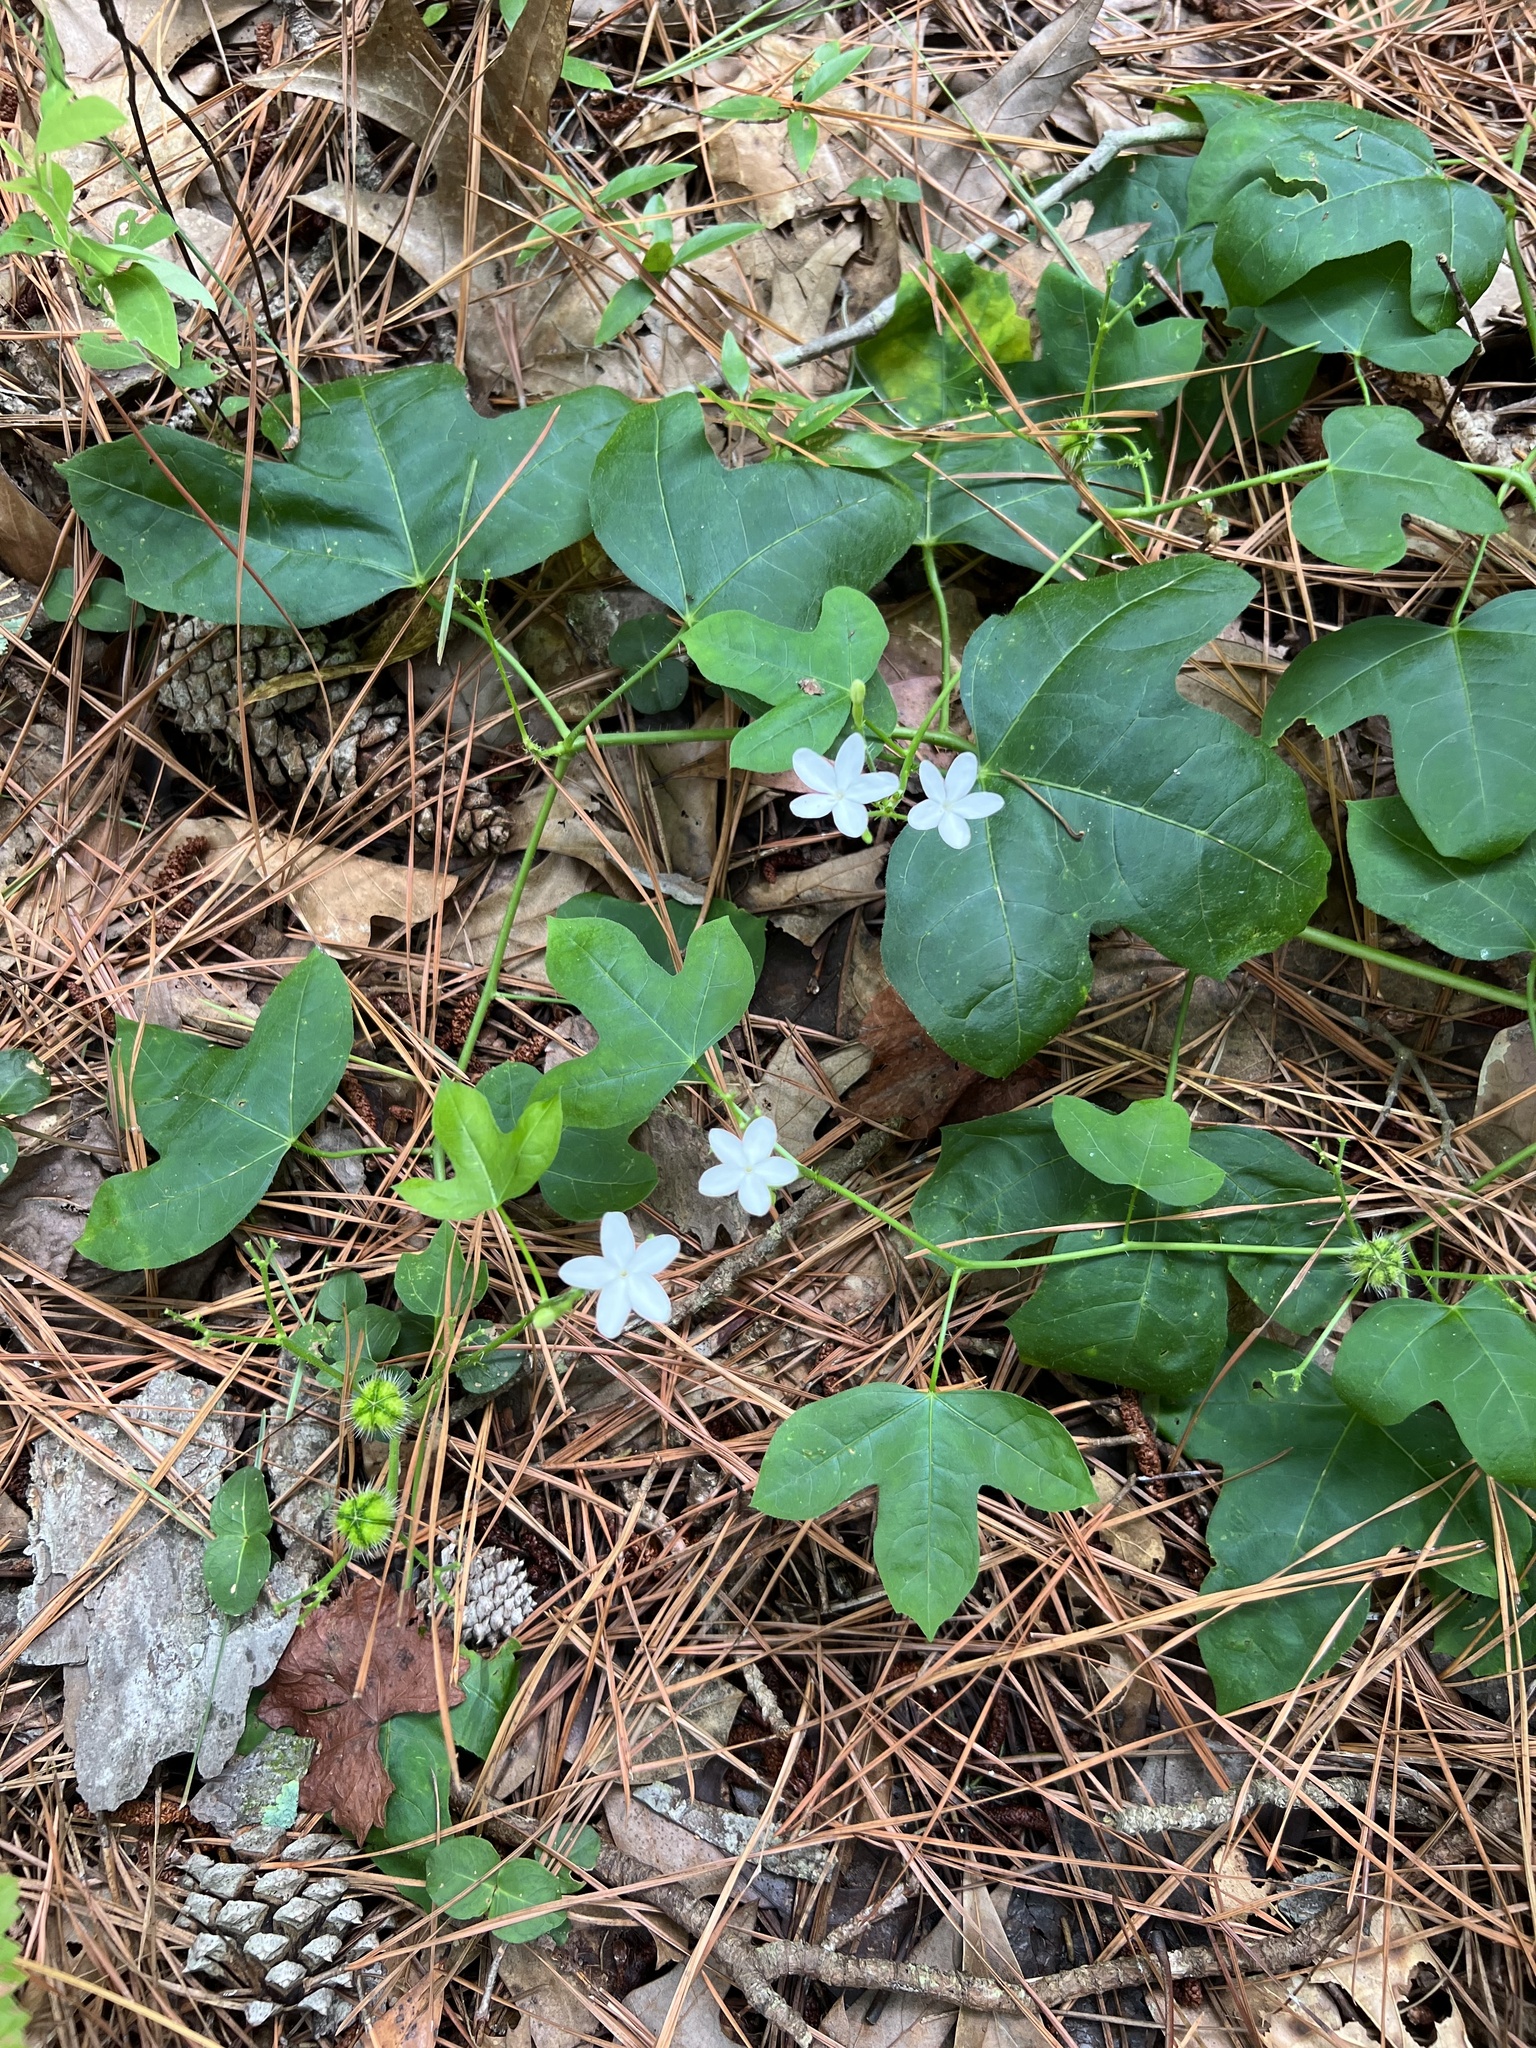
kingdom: Plantae
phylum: Tracheophyta
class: Magnoliopsida
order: Malpighiales
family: Euphorbiaceae
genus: Cnidoscolus
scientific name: Cnidoscolus stimulosus
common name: Bull-nettle
